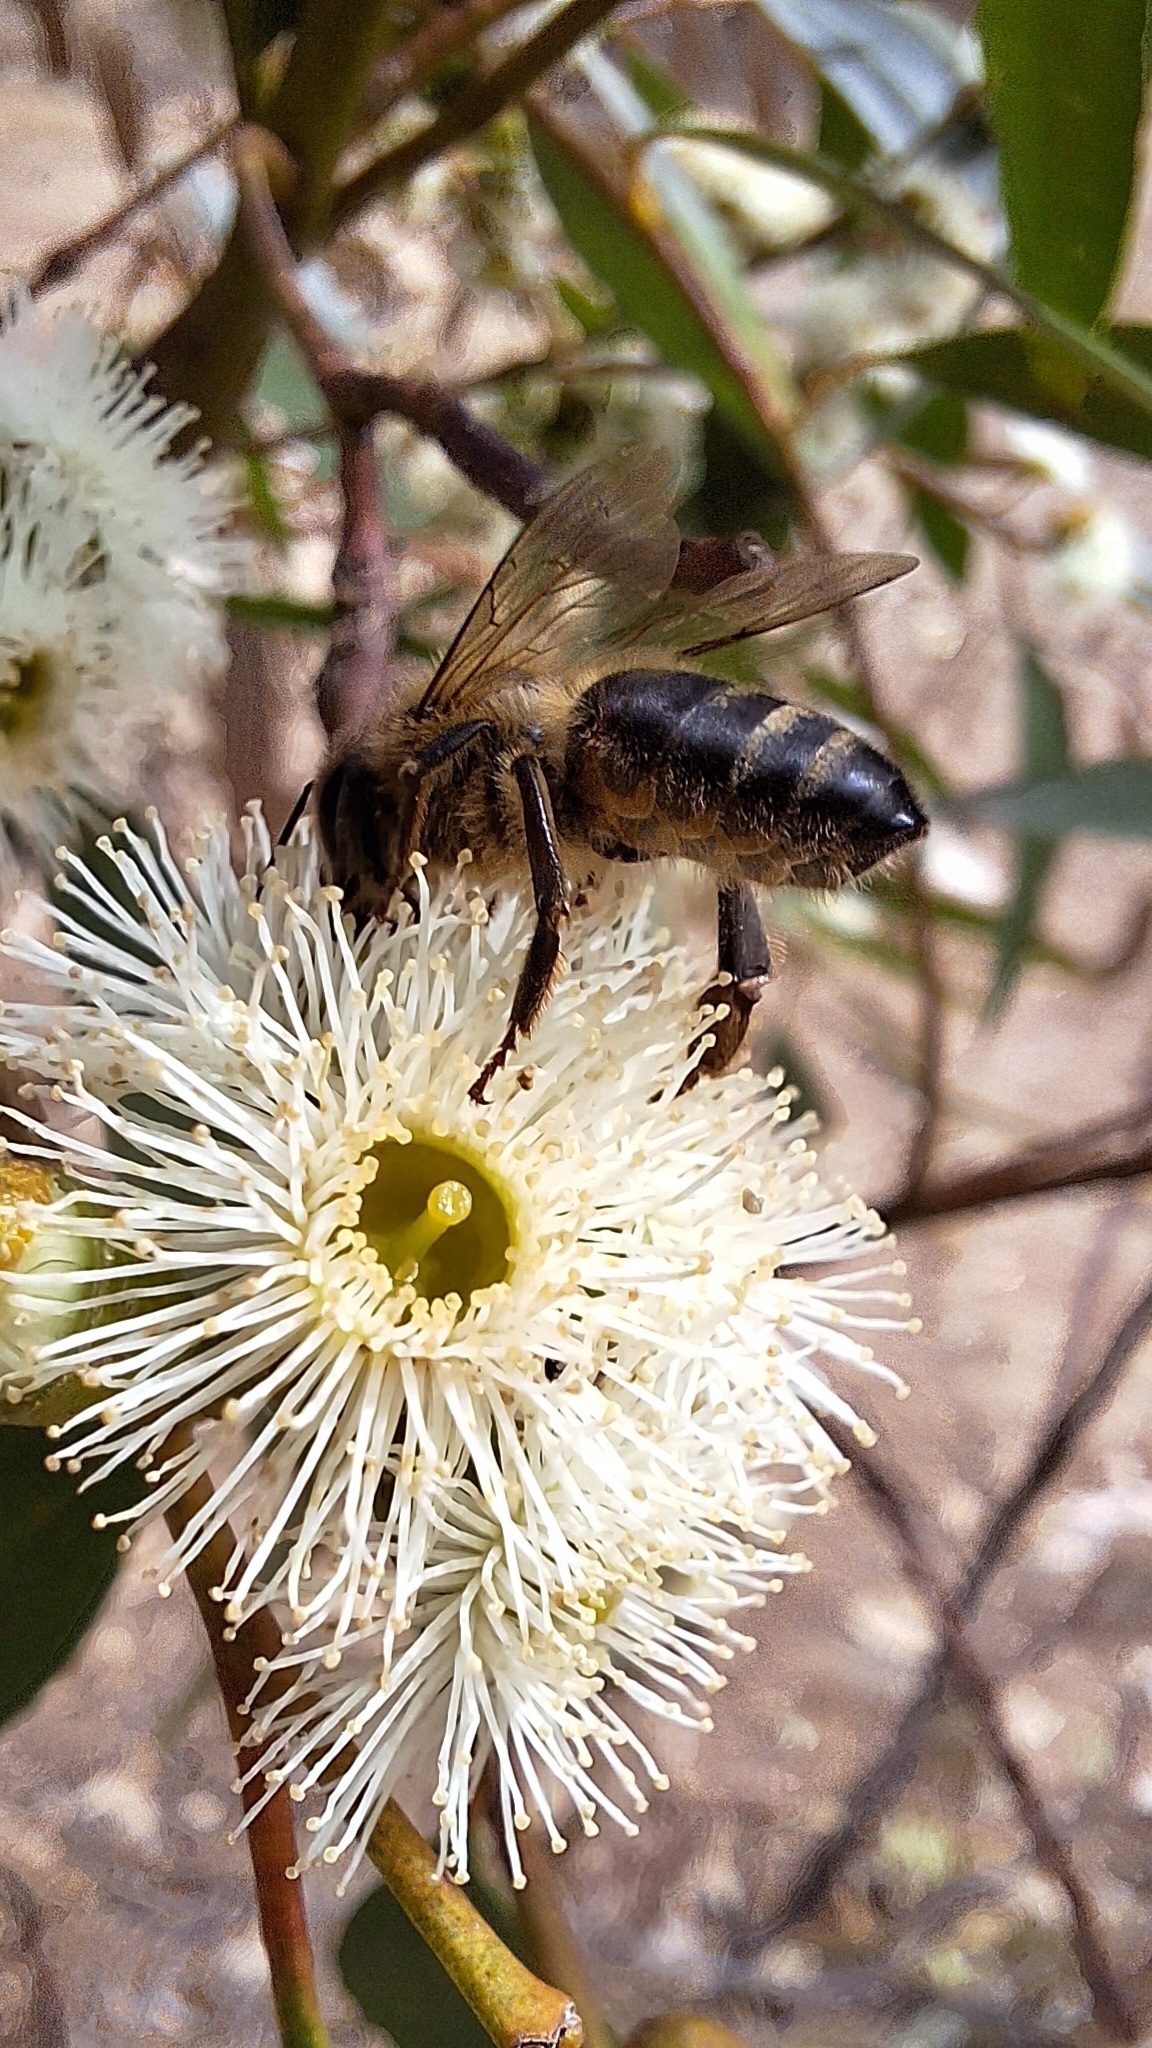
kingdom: Animalia
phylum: Arthropoda
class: Insecta
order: Hymenoptera
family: Apidae
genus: Apis
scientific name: Apis mellifera
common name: Honey bee
